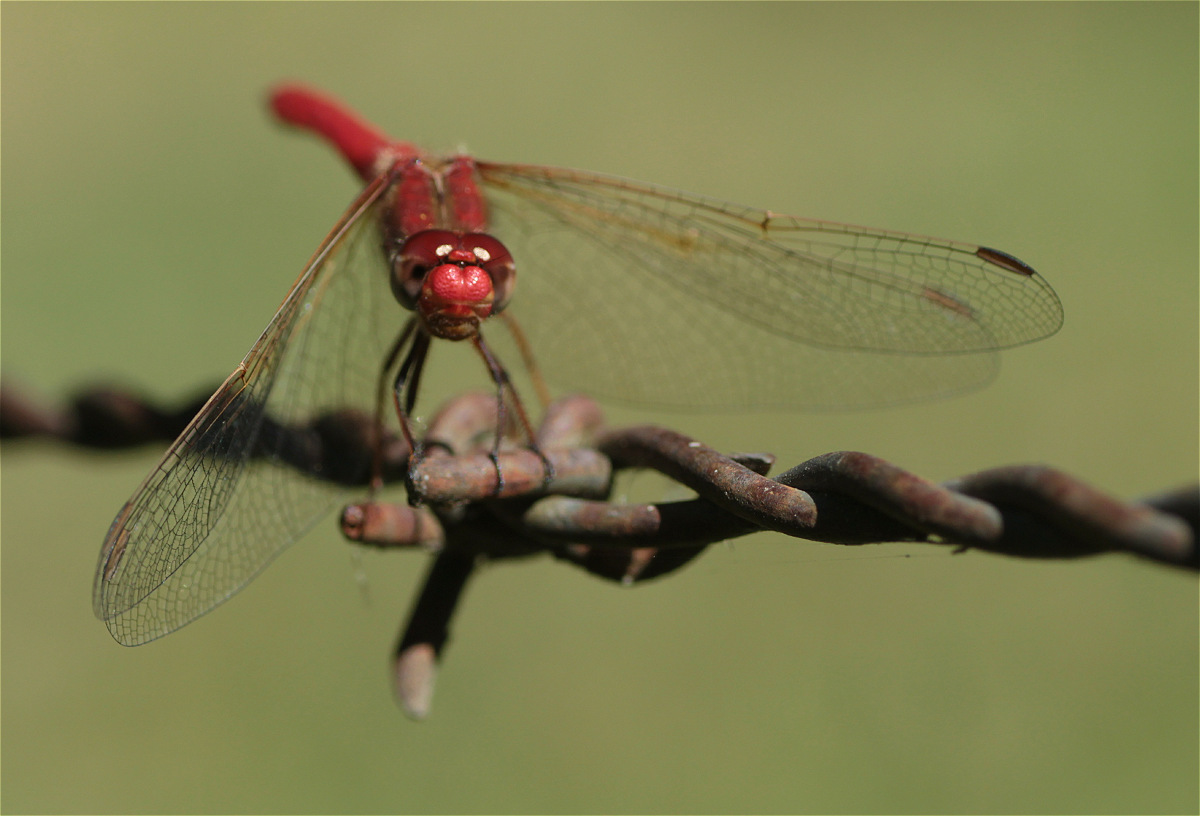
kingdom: Animalia
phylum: Arthropoda
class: Insecta
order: Odonata
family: Libellulidae
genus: Sympetrum
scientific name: Sympetrum gilvum
